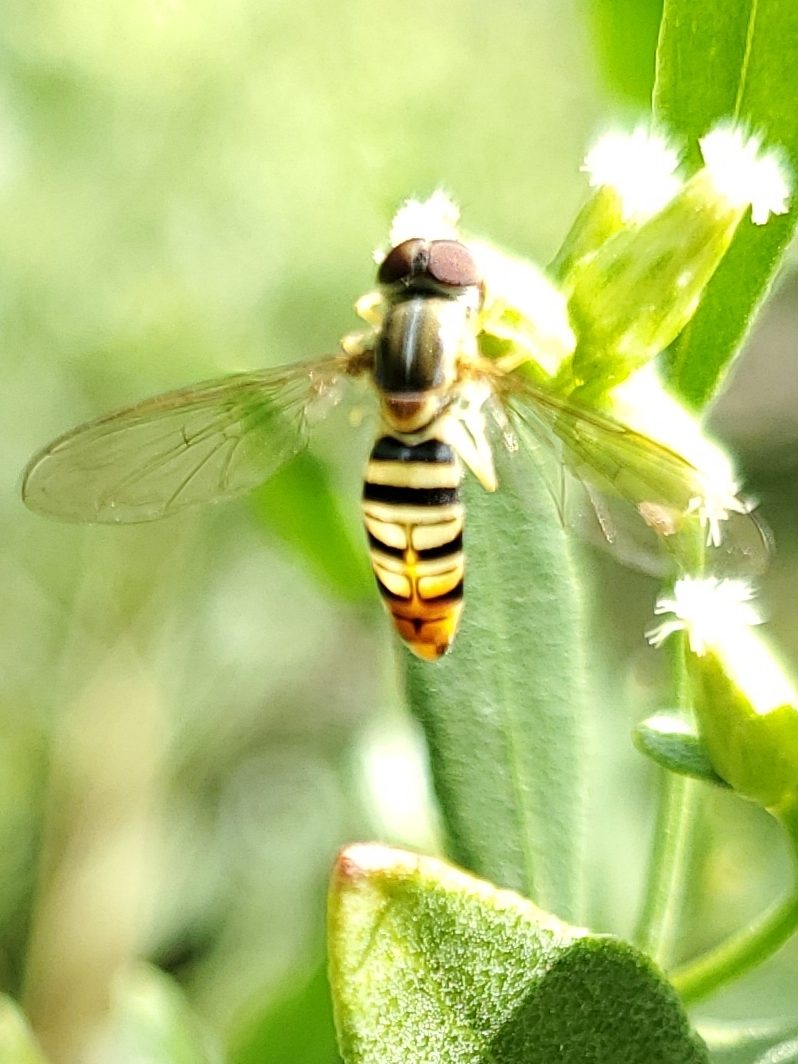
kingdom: Animalia
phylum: Arthropoda
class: Insecta
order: Diptera
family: Syrphidae
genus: Toxomerus
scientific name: Toxomerus politus
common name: Maize calligrapher
